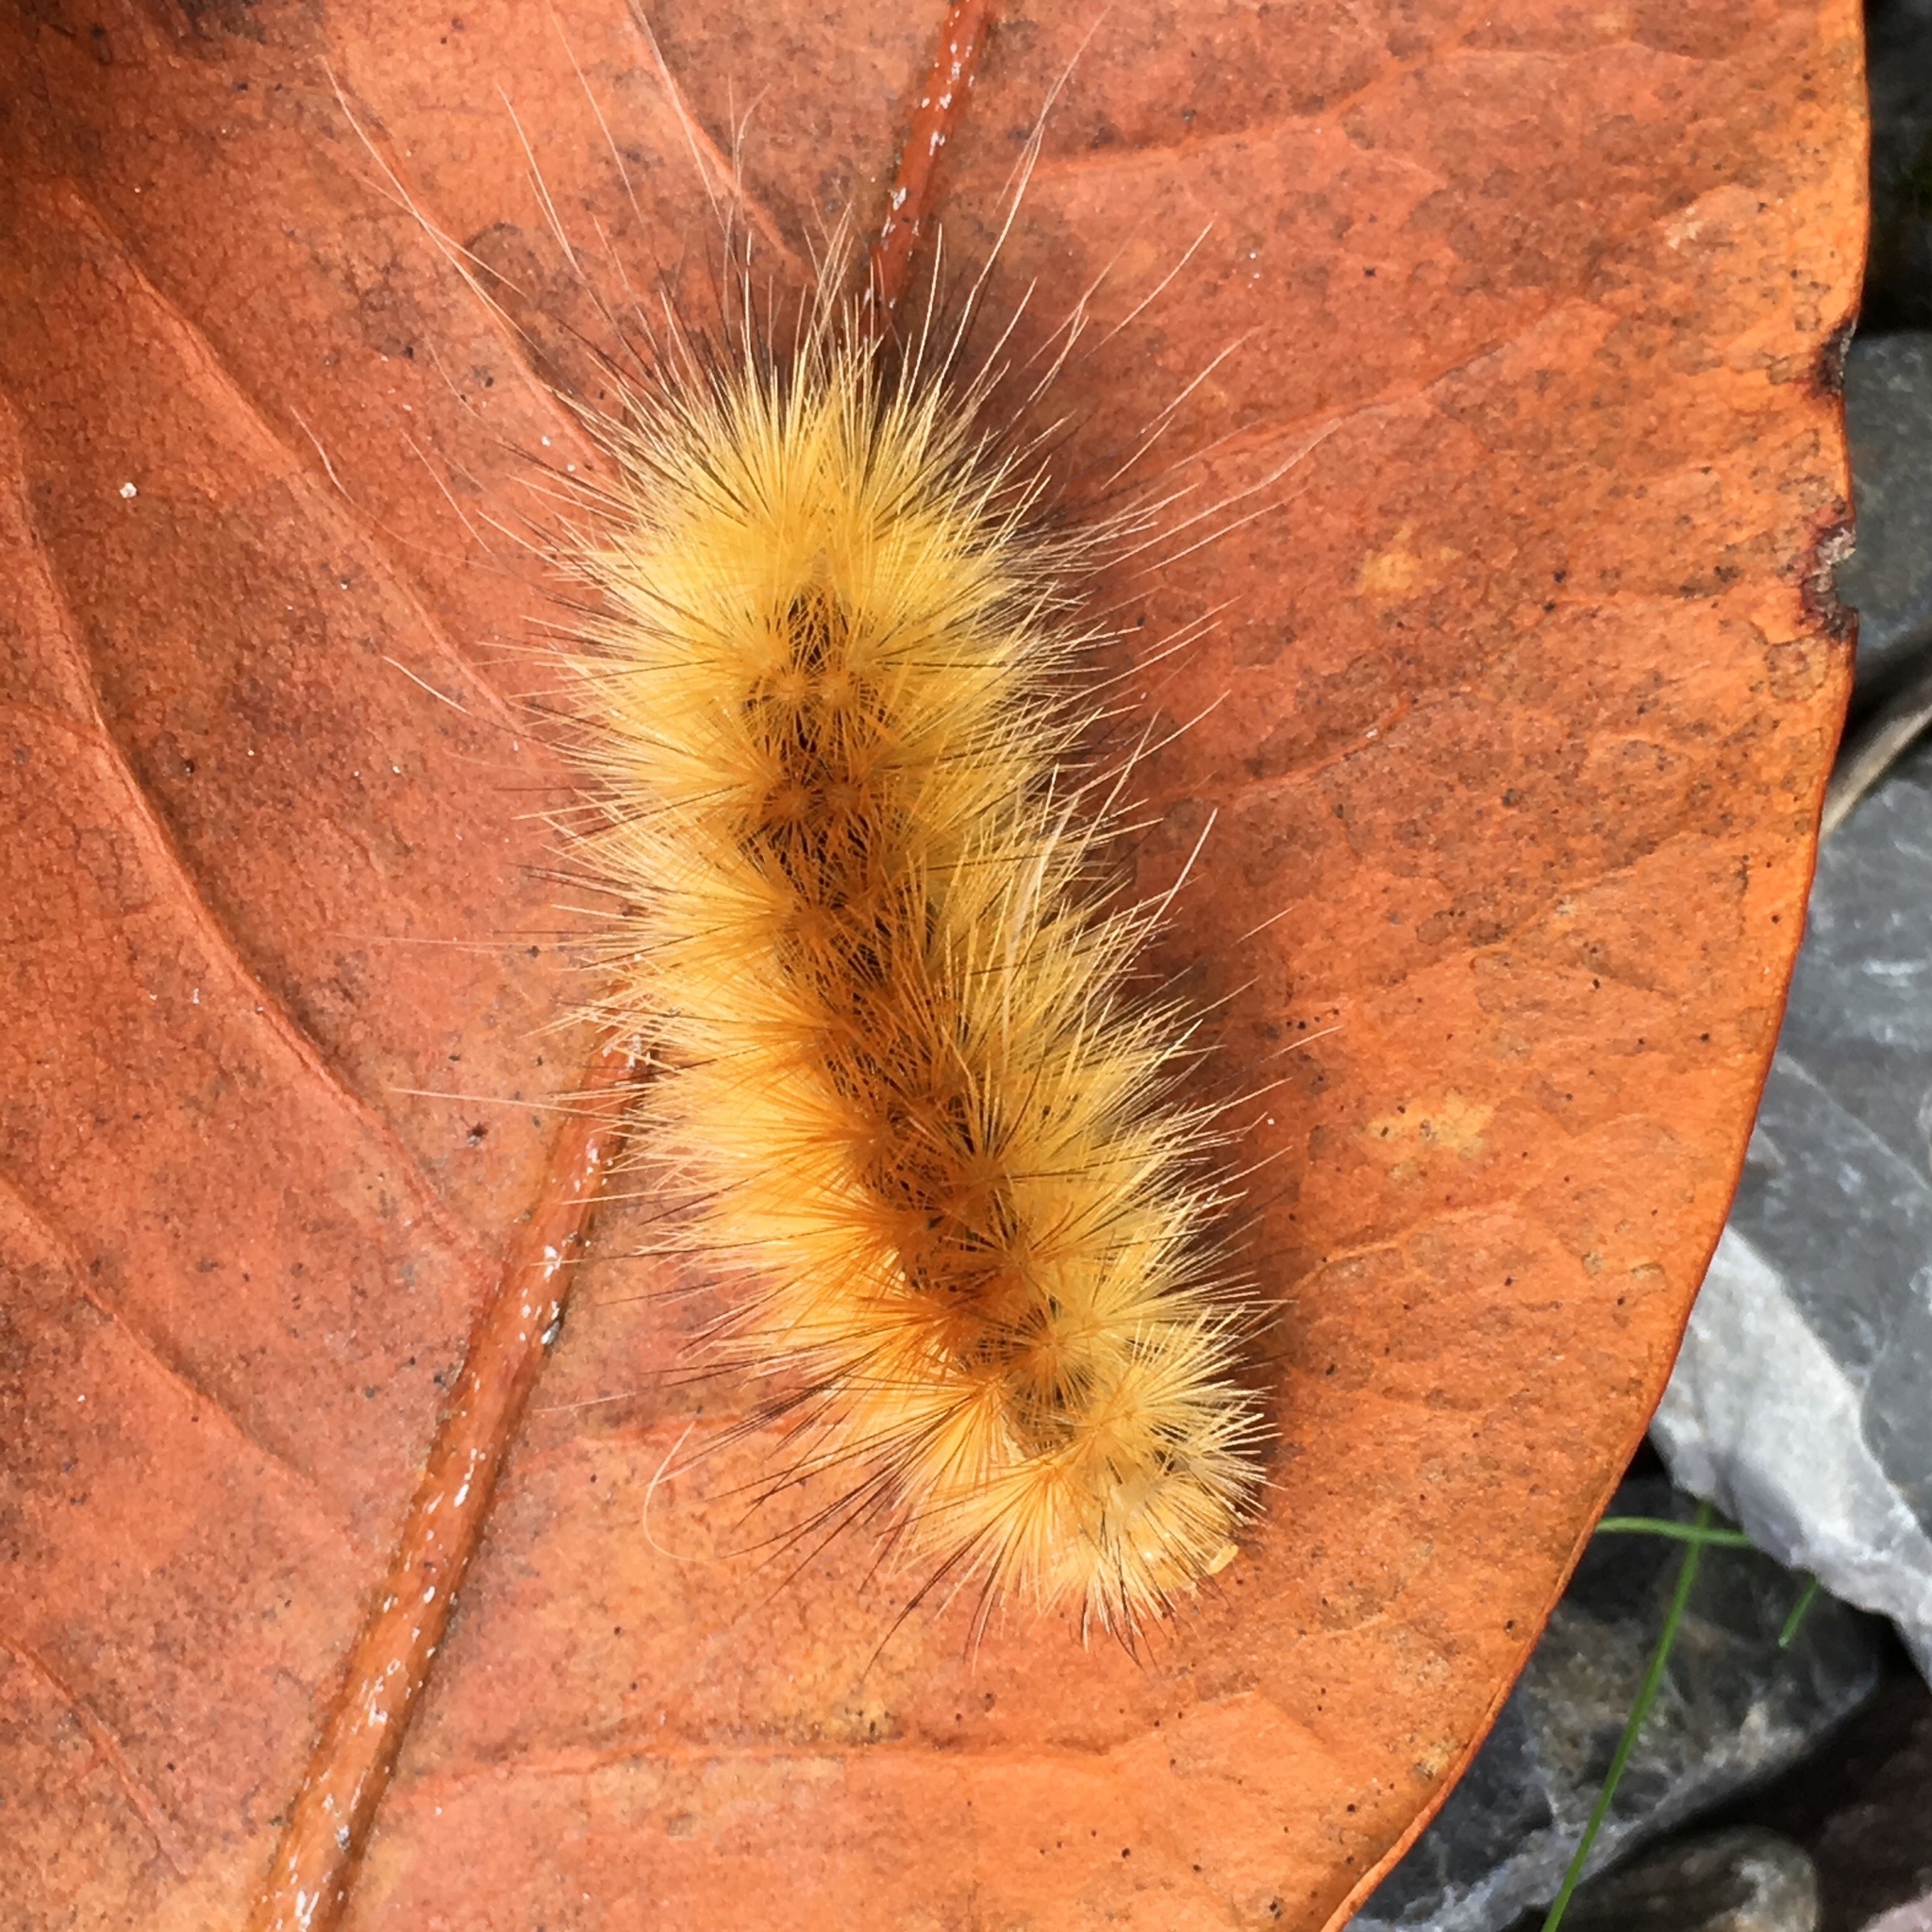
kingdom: Animalia
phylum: Arthropoda
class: Insecta
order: Lepidoptera
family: Erebidae
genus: Spilosoma
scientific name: Spilosoma virginica
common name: Virginia tiger moth
